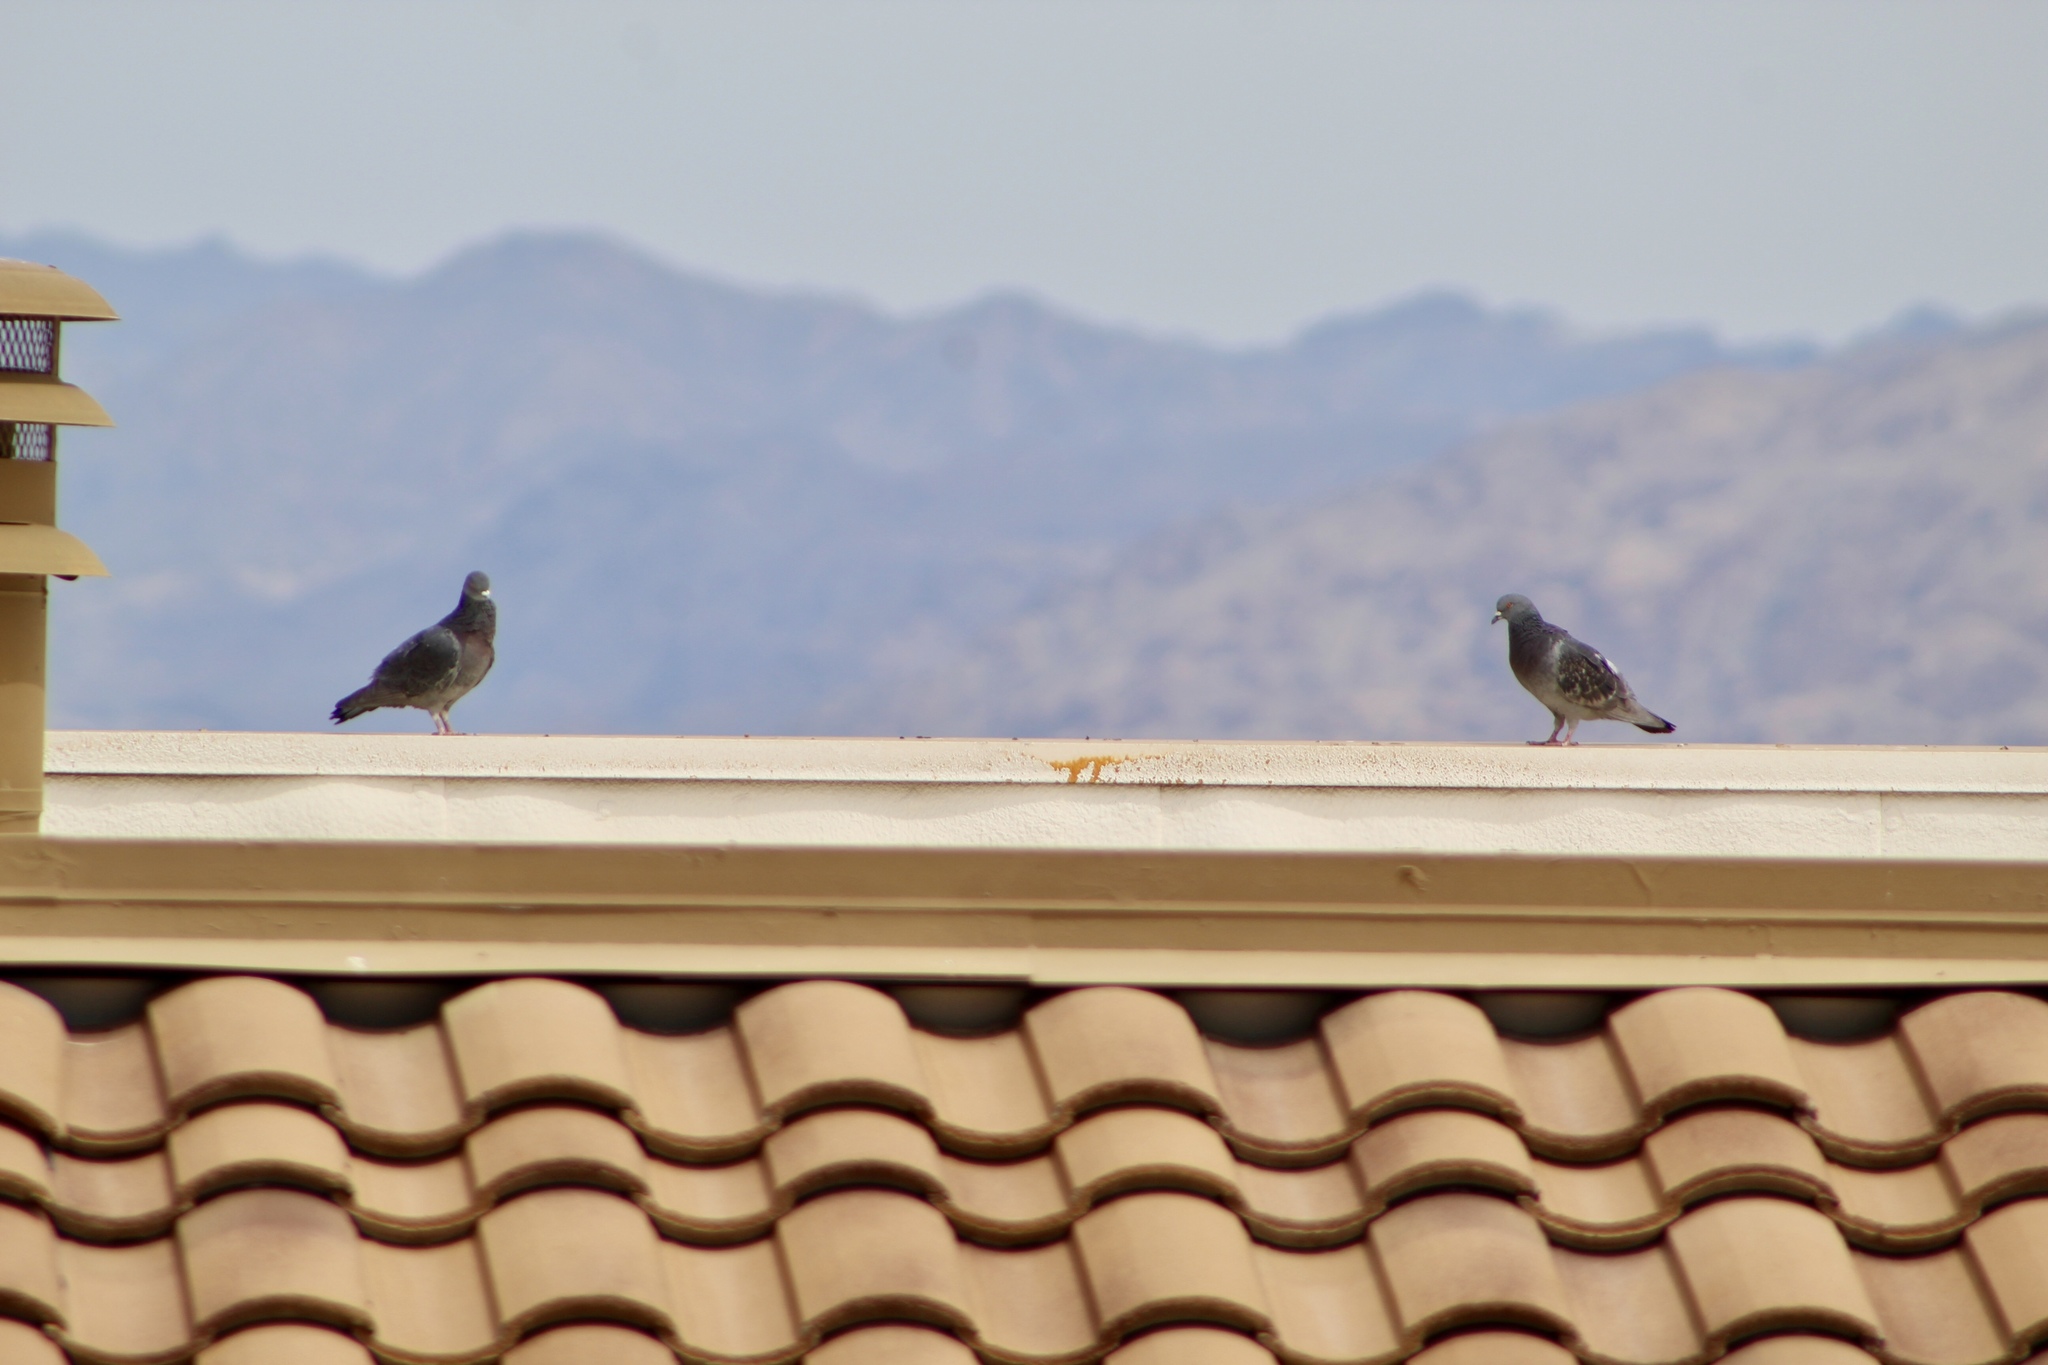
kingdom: Animalia
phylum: Chordata
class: Aves
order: Columbiformes
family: Columbidae
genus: Columba
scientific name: Columba livia
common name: Rock pigeon
